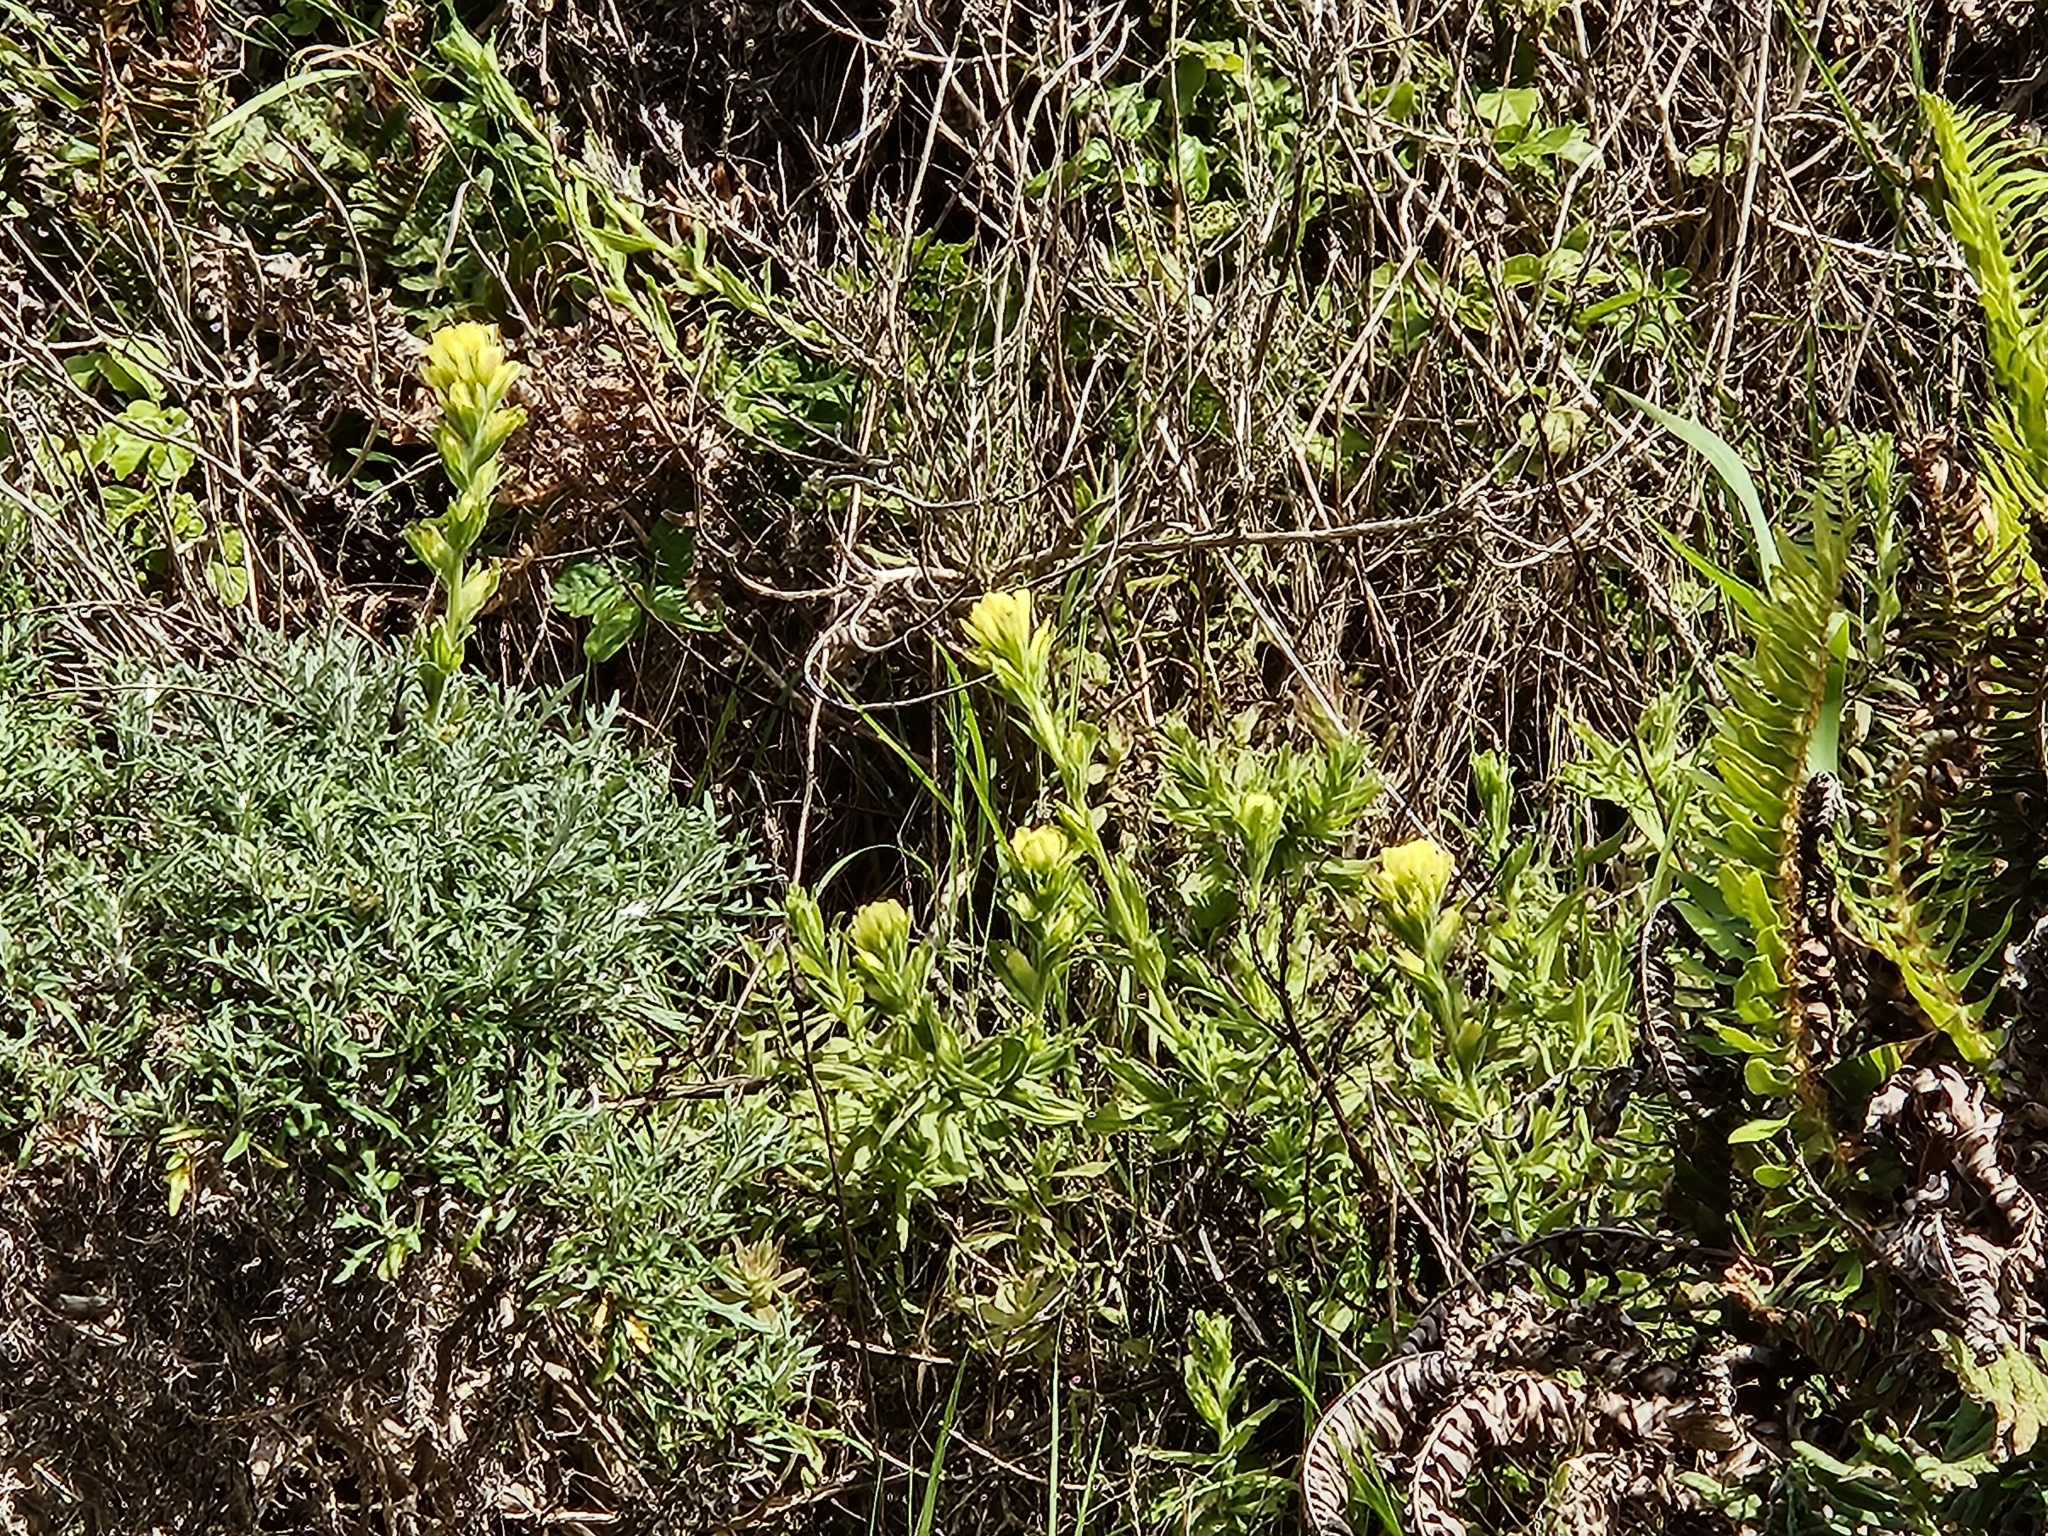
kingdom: Plantae
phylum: Tracheophyta
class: Magnoliopsida
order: Lamiales
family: Orobanchaceae
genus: Castilleja
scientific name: Castilleja wightii
